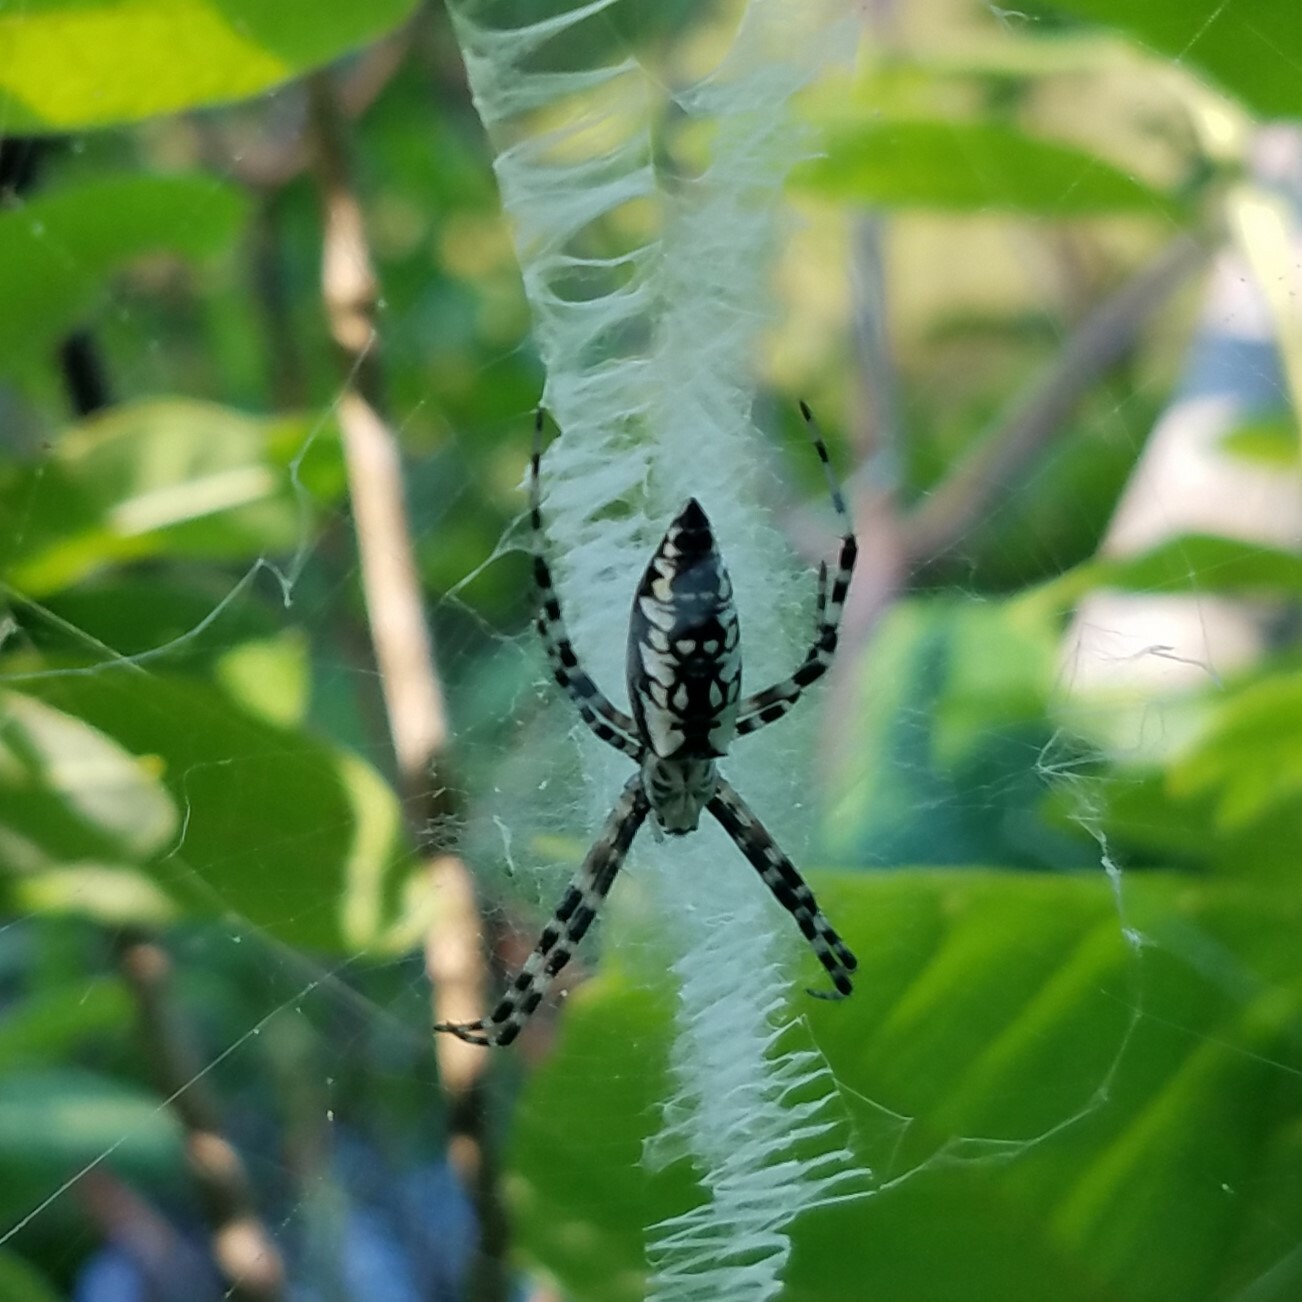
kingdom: Animalia
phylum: Arthropoda
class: Arachnida
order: Araneae
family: Araneidae
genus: Argiope
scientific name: Argiope aurantia
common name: Orb weavers
